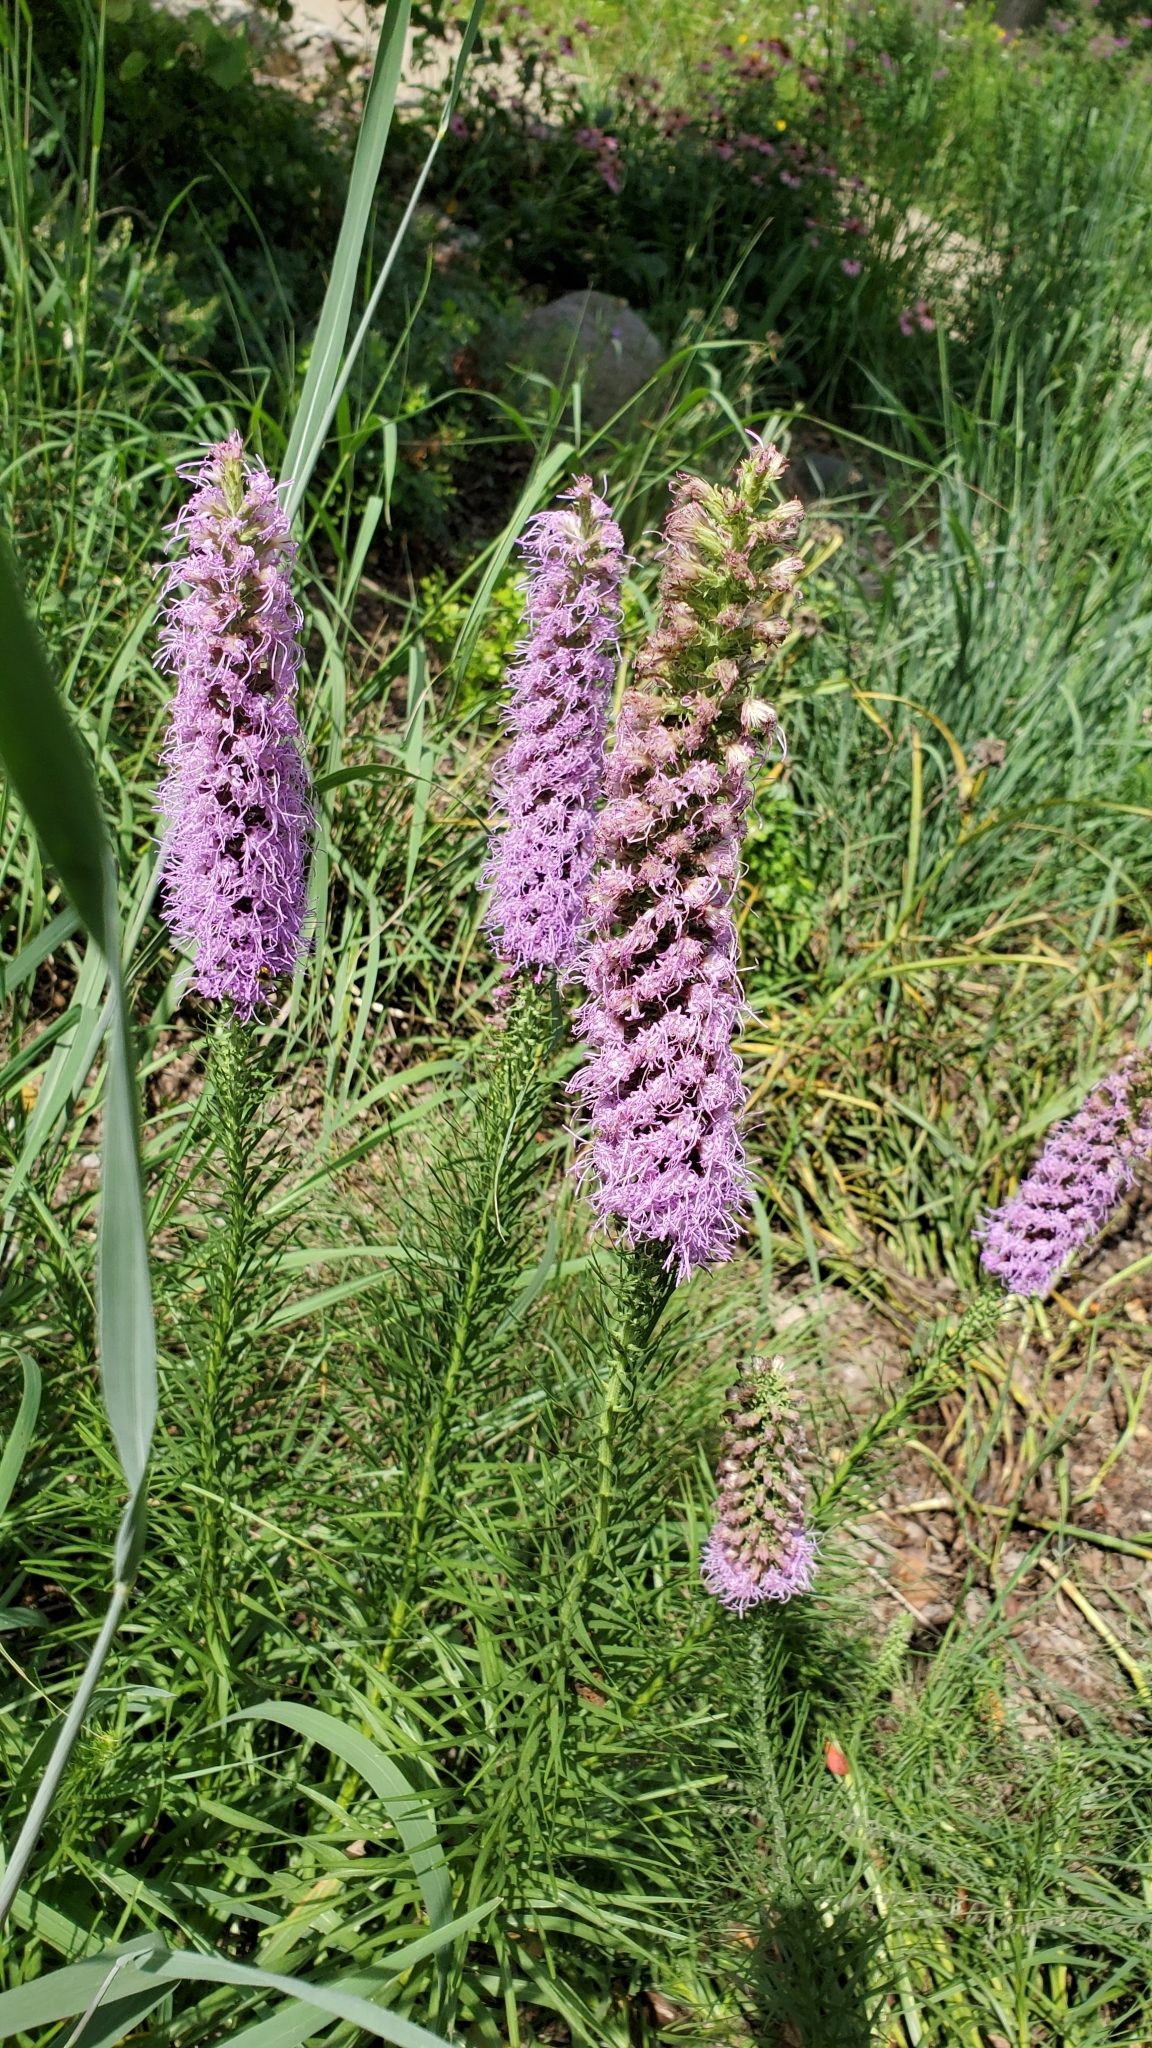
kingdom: Plantae
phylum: Tracheophyta
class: Magnoliopsida
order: Asterales
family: Asteraceae
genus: Liatris
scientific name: Liatris pycnostachya
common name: Cattail gayfeather
